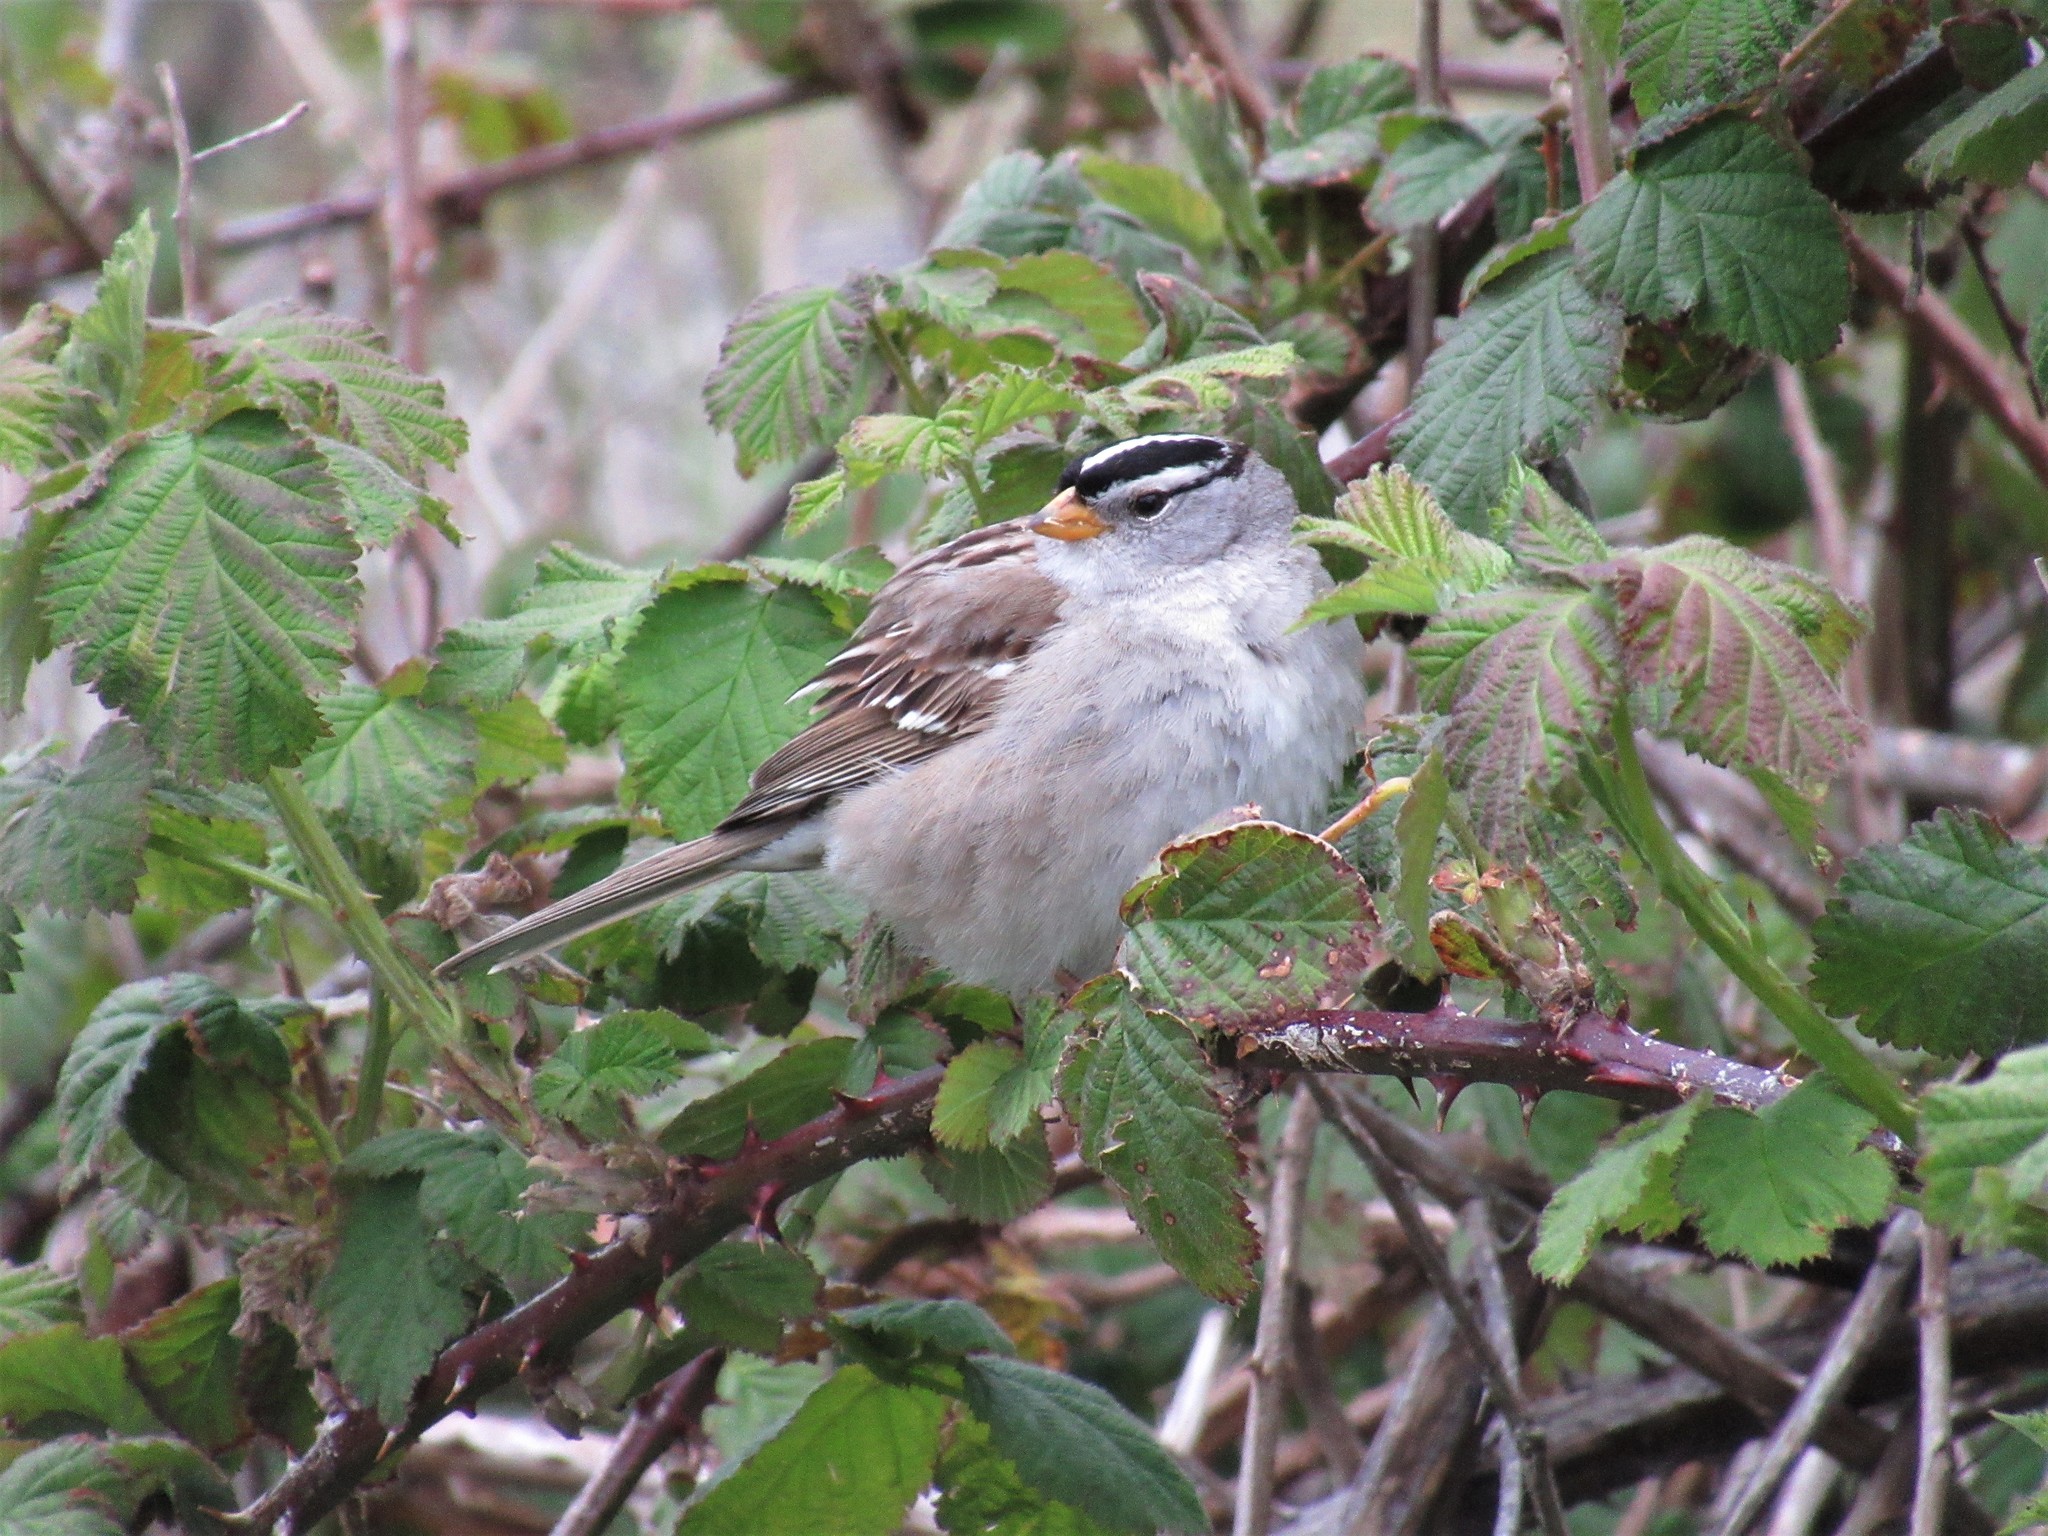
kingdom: Animalia
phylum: Chordata
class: Aves
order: Passeriformes
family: Passerellidae
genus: Zonotrichia
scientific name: Zonotrichia leucophrys
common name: White-crowned sparrow
